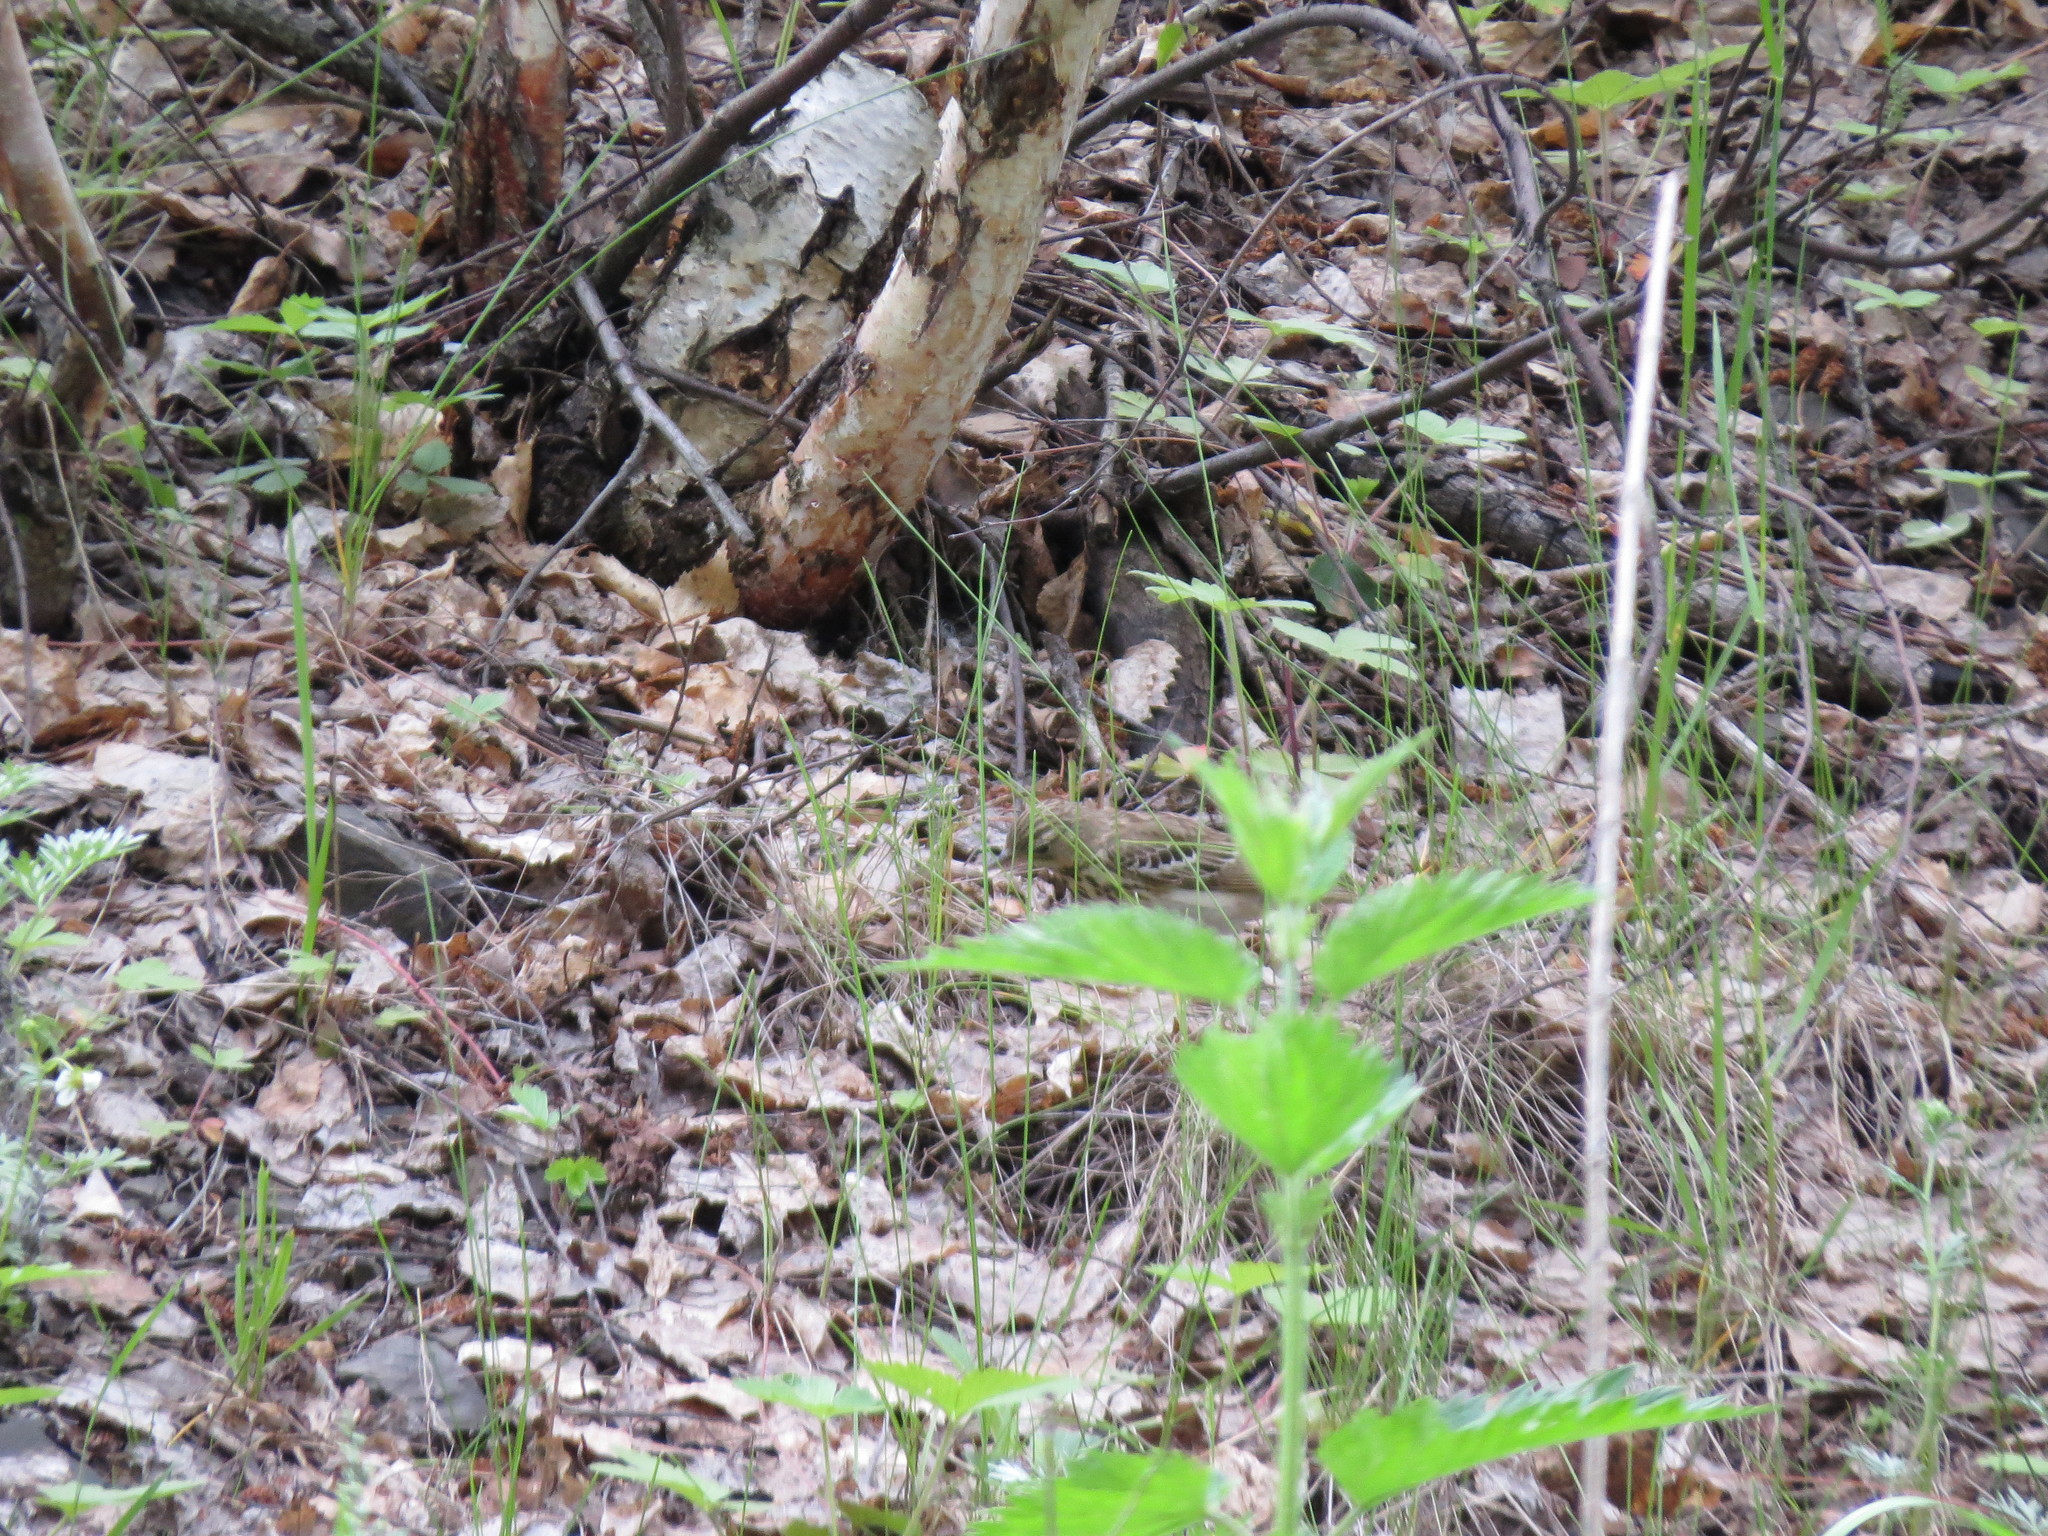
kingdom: Animalia
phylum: Chordata
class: Aves
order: Passeriformes
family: Motacillidae
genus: Anthus
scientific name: Anthus trivialis
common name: Tree pipit
